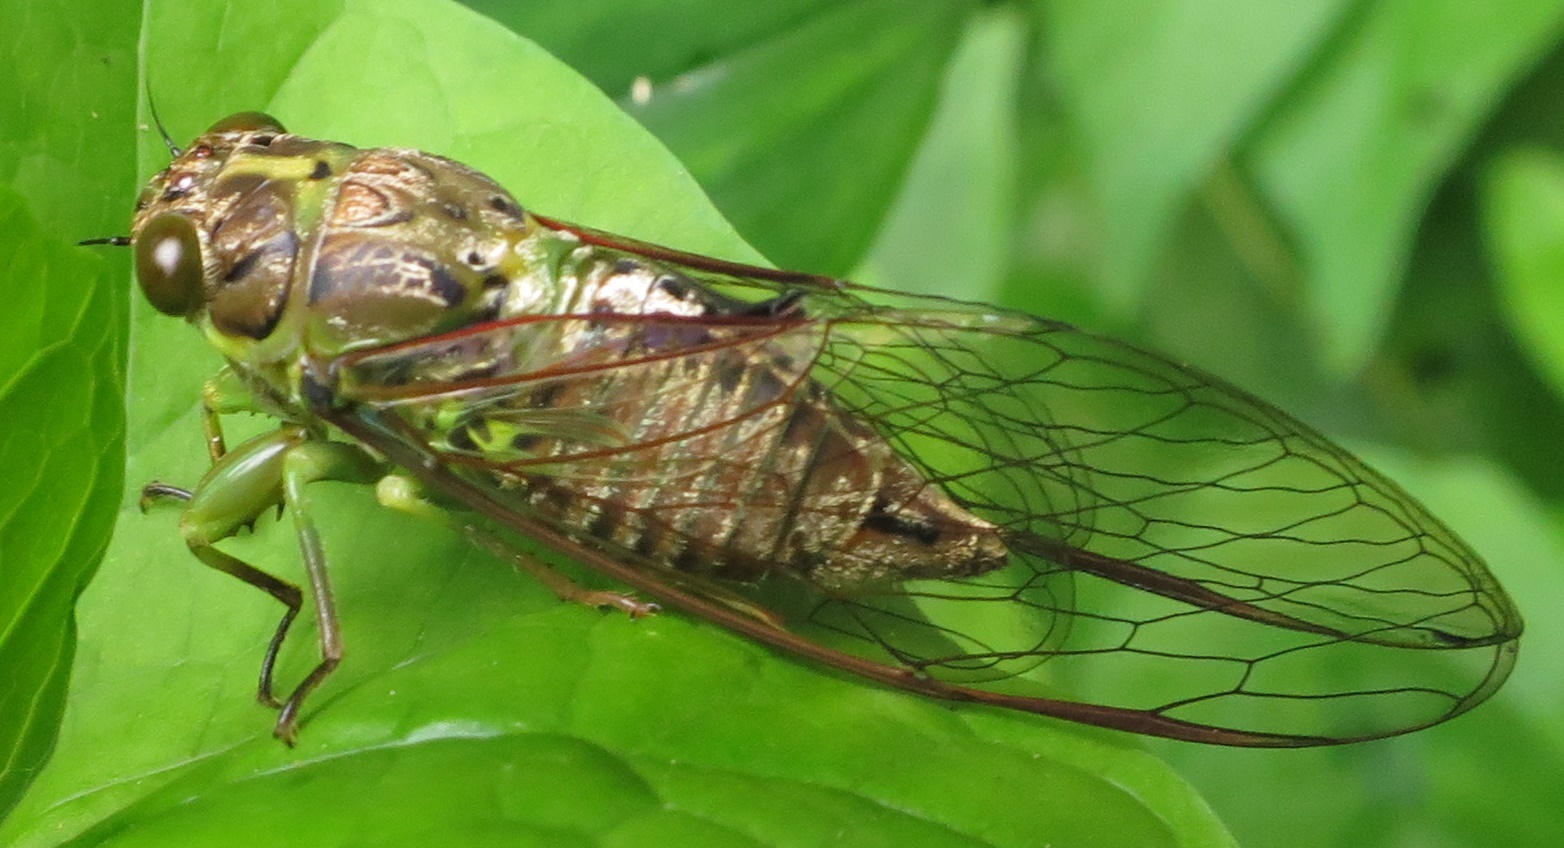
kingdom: Animalia
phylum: Arthropoda
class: Insecta
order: Hemiptera
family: Cicadidae
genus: Kikihia
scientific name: Kikihia scutellaris
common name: Lesser bronze cicada
